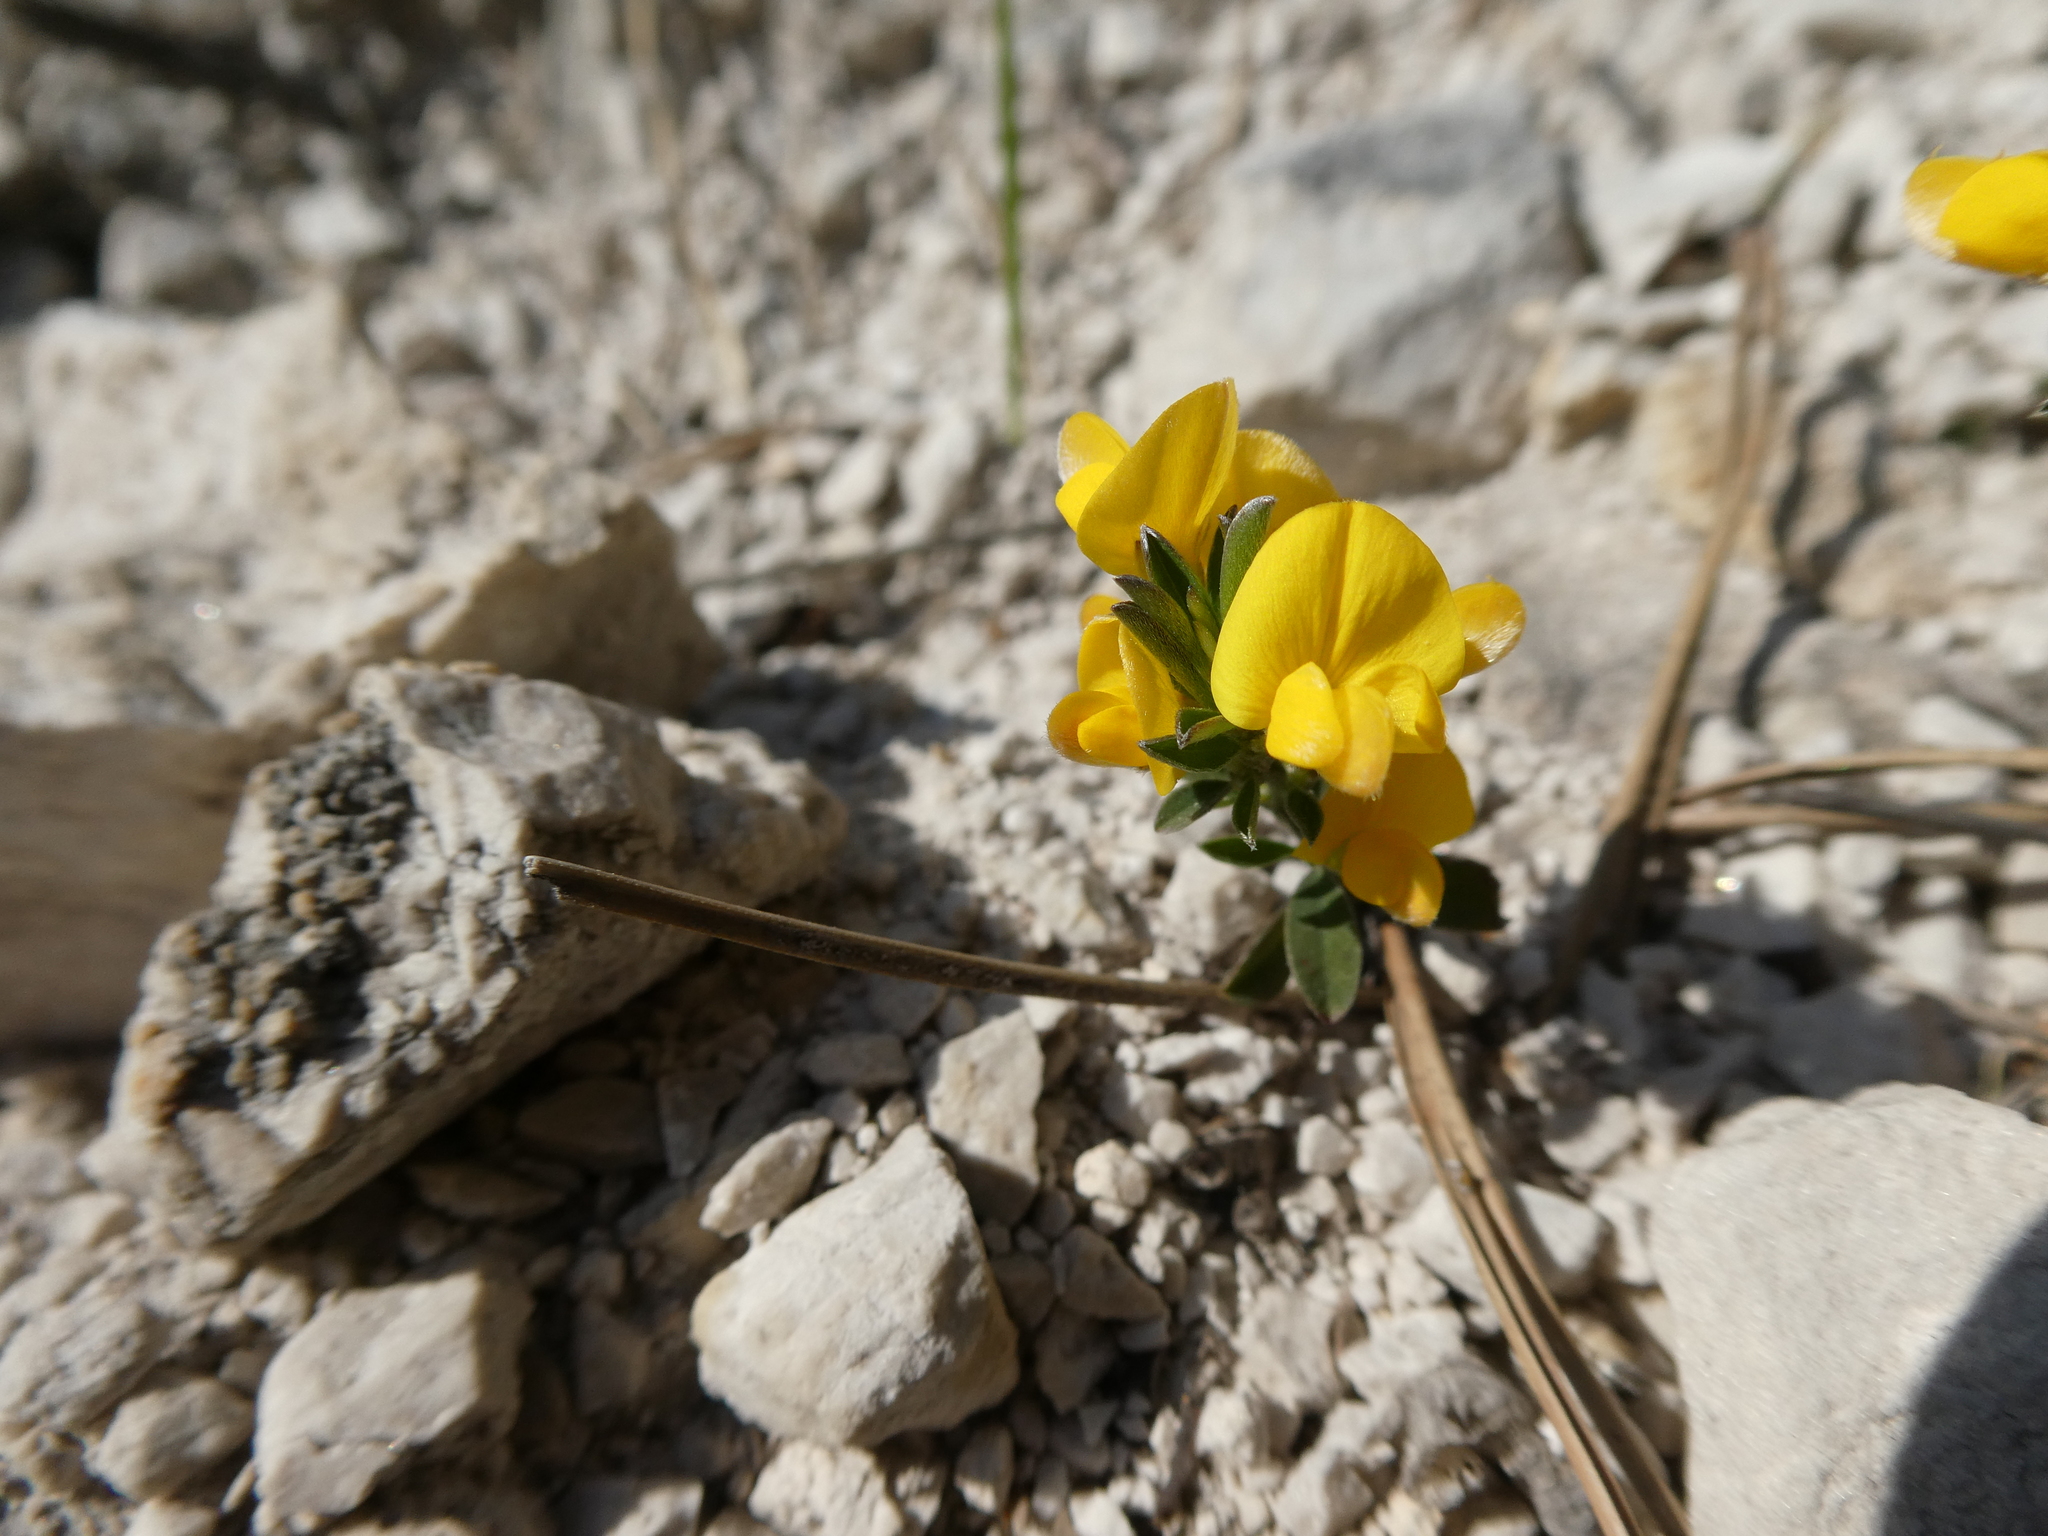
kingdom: Plantae
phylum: Tracheophyta
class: Magnoliopsida
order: Fabales
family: Fabaceae
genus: Lotus
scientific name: Lotus corniculatus
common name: Common bird's-foot-trefoil
